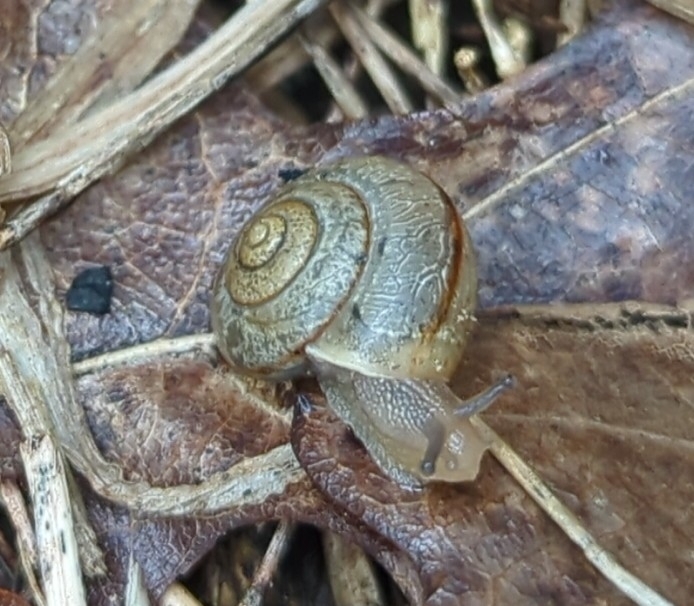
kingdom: Animalia
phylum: Mollusca
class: Gastropoda
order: Stylommatophora
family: Camaenidae
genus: Bradybaena
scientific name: Bradybaena similaris
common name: Asian trampsnail
